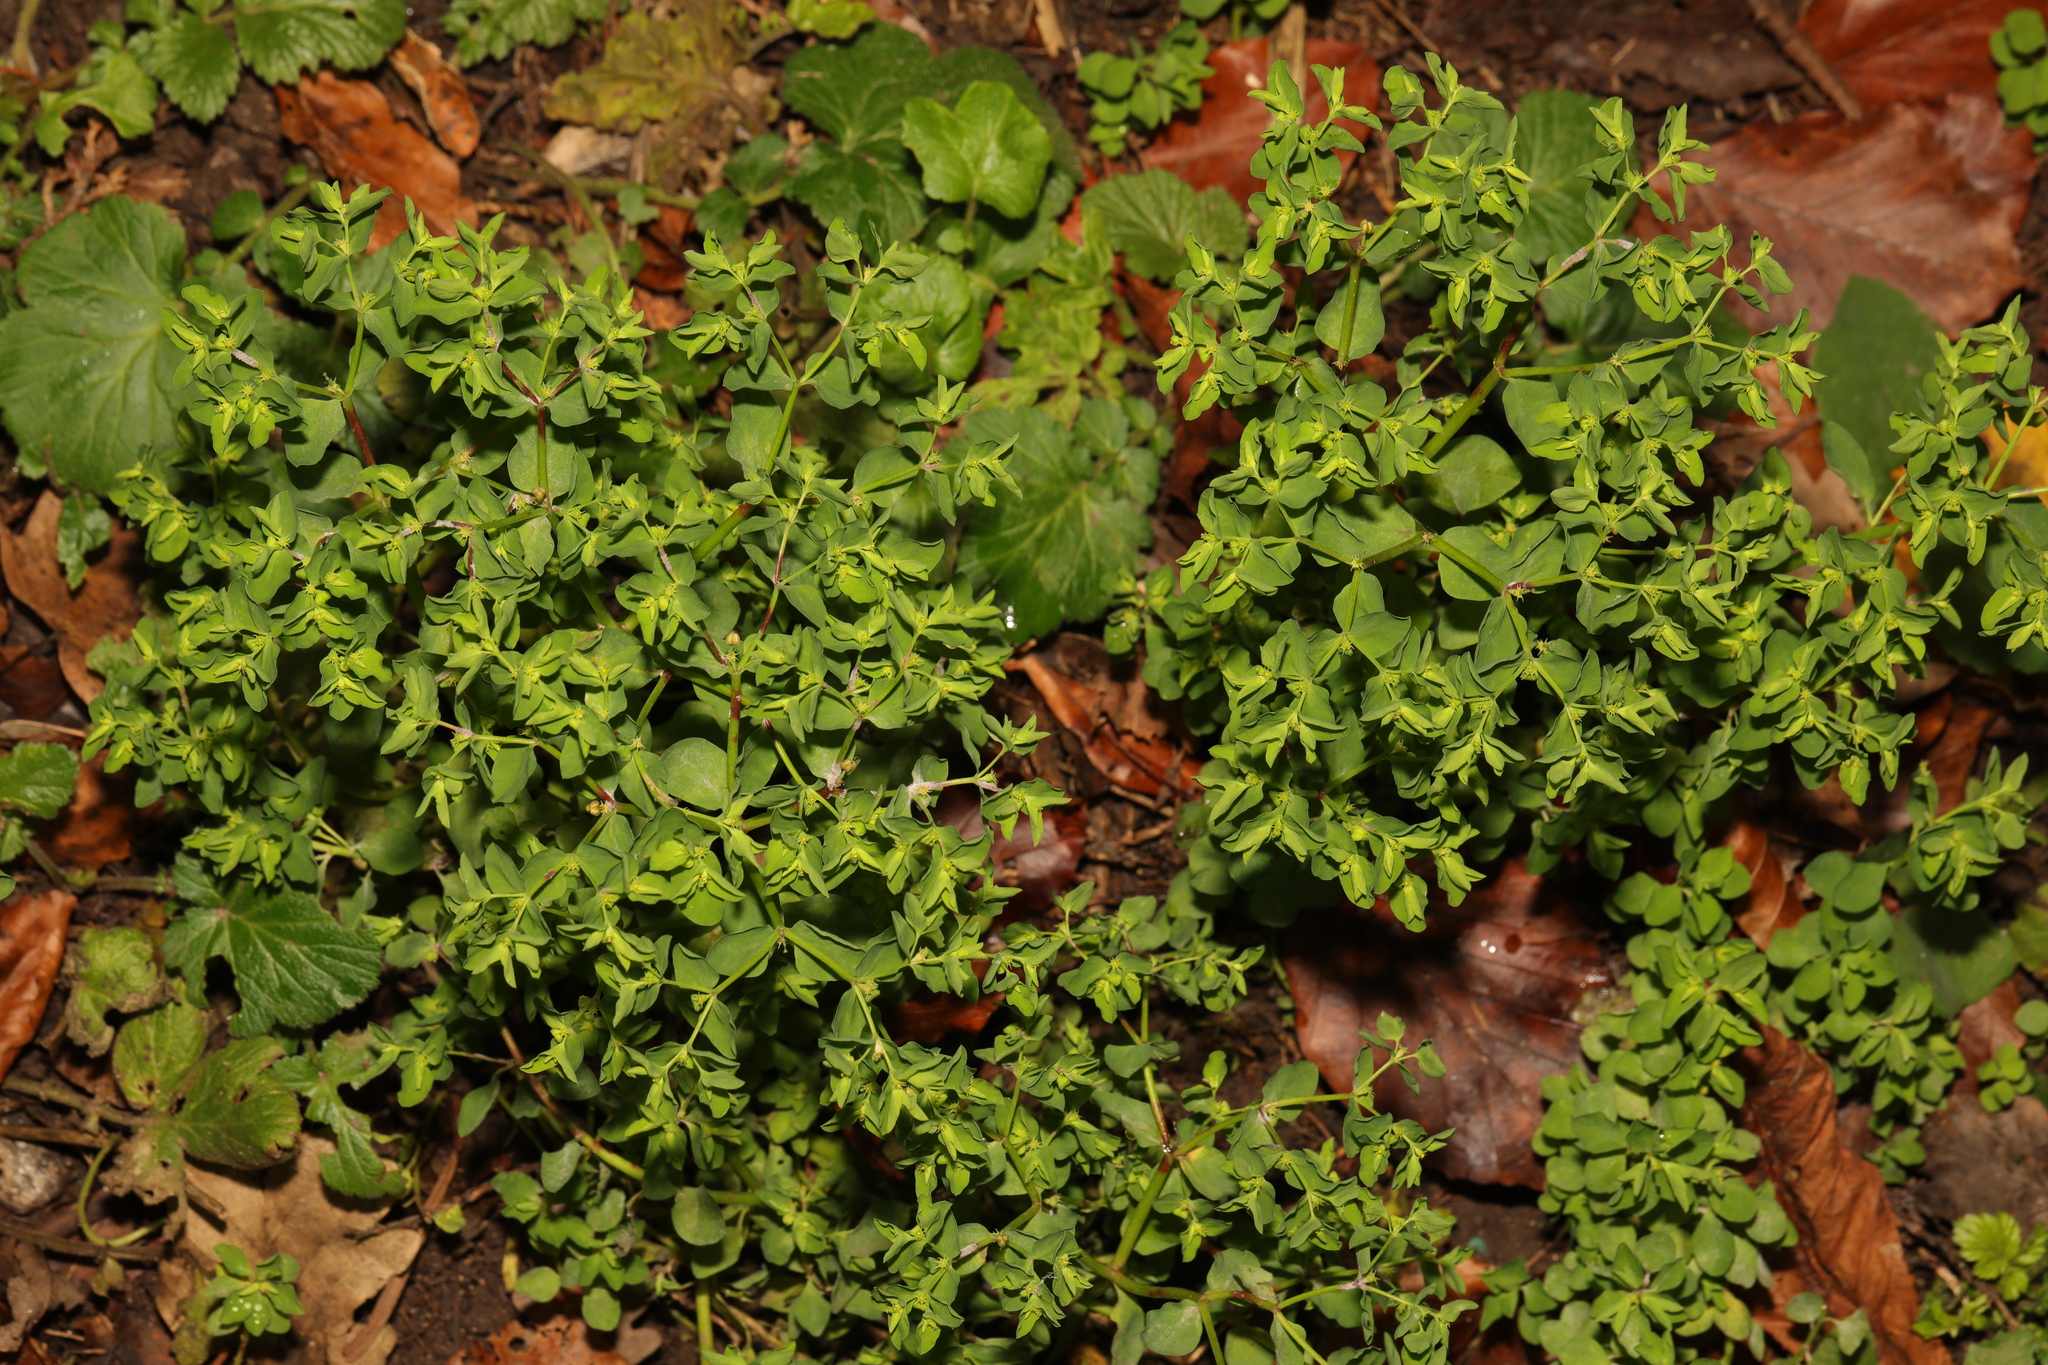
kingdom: Plantae
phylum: Tracheophyta
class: Magnoliopsida
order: Malpighiales
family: Euphorbiaceae
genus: Euphorbia
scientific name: Euphorbia peplus
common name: Petty spurge
